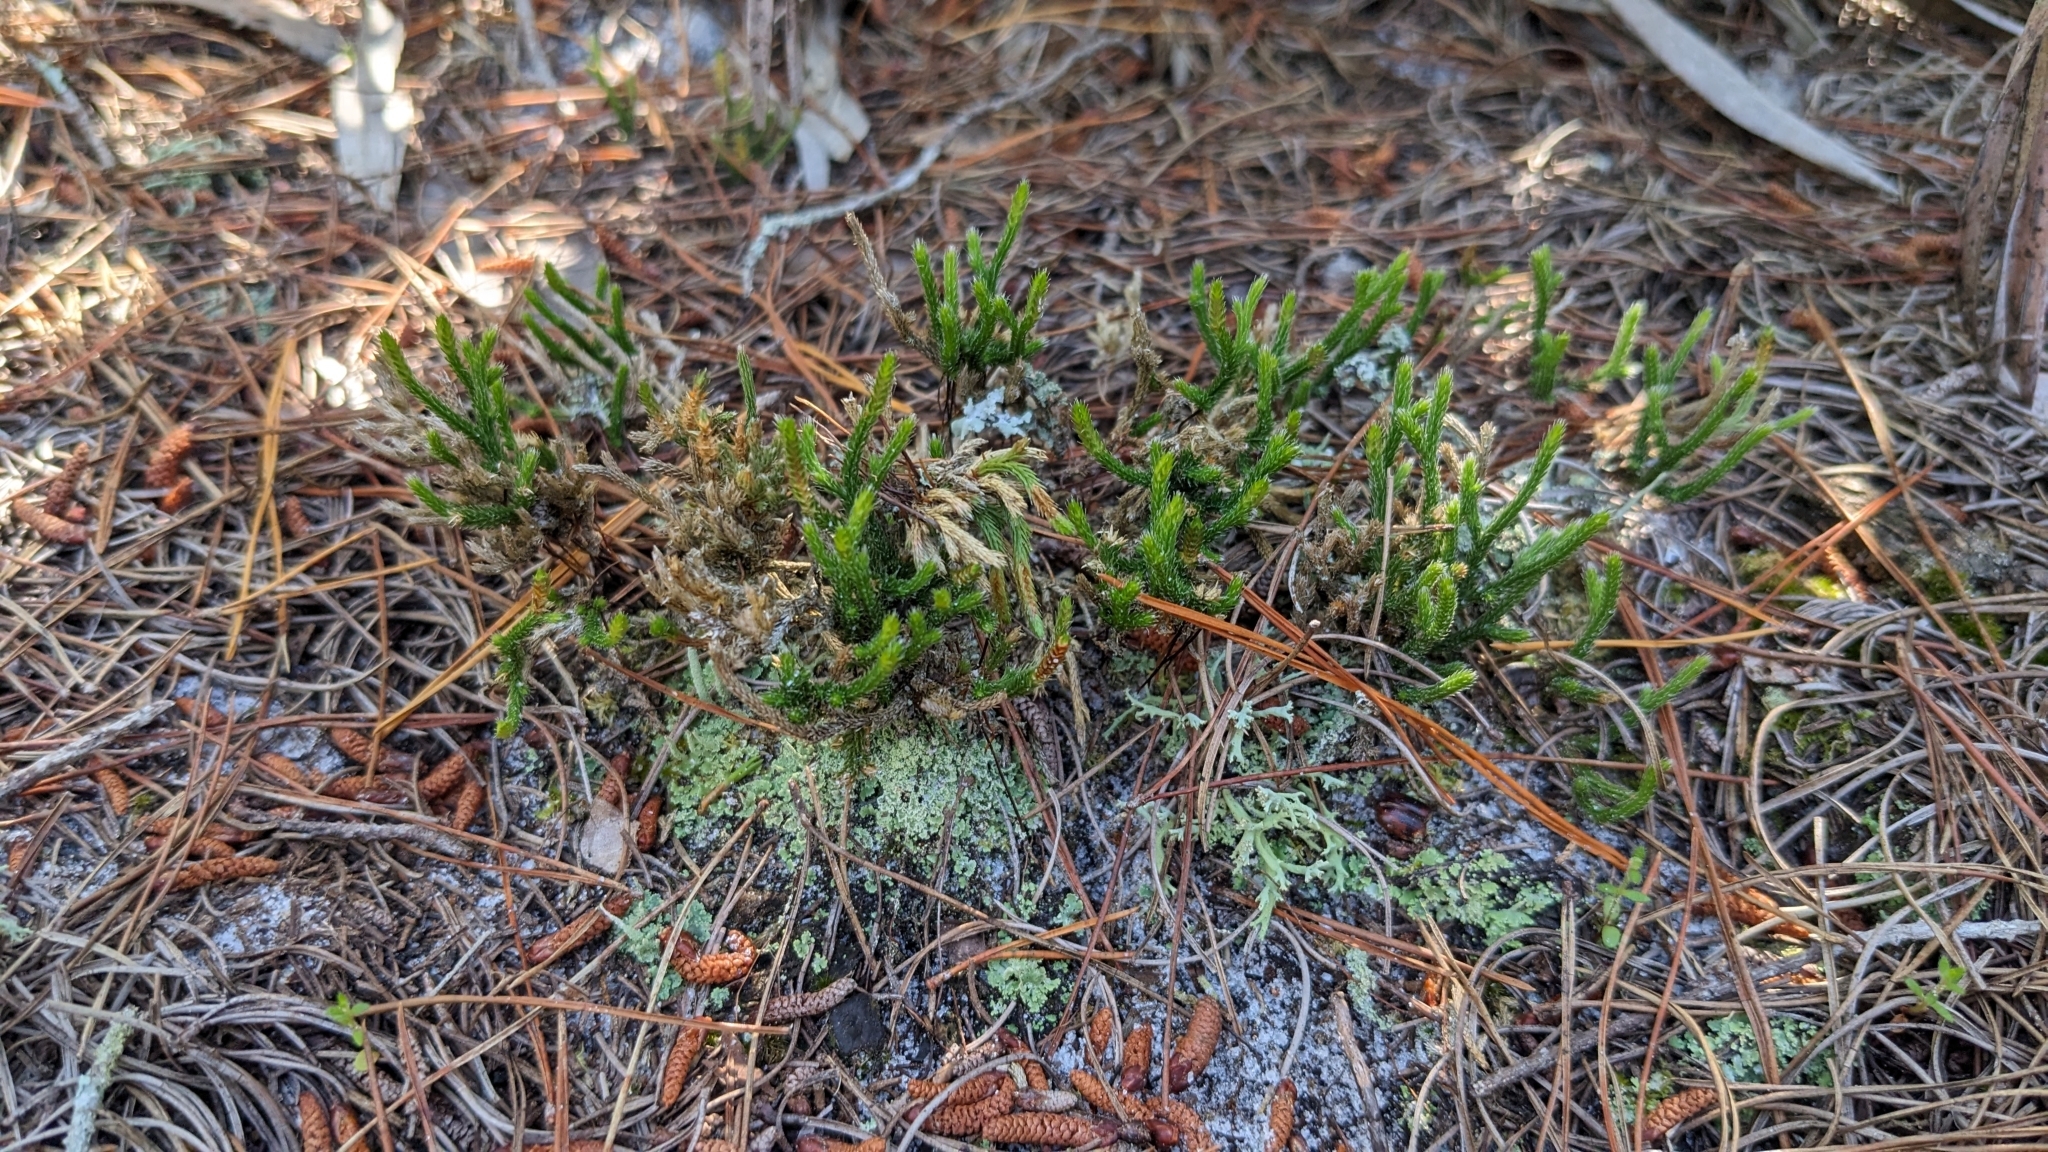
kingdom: Plantae
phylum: Tracheophyta
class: Lycopodiopsida
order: Selaginellales
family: Selaginellaceae
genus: Selaginella
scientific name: Selaginella arenicola
